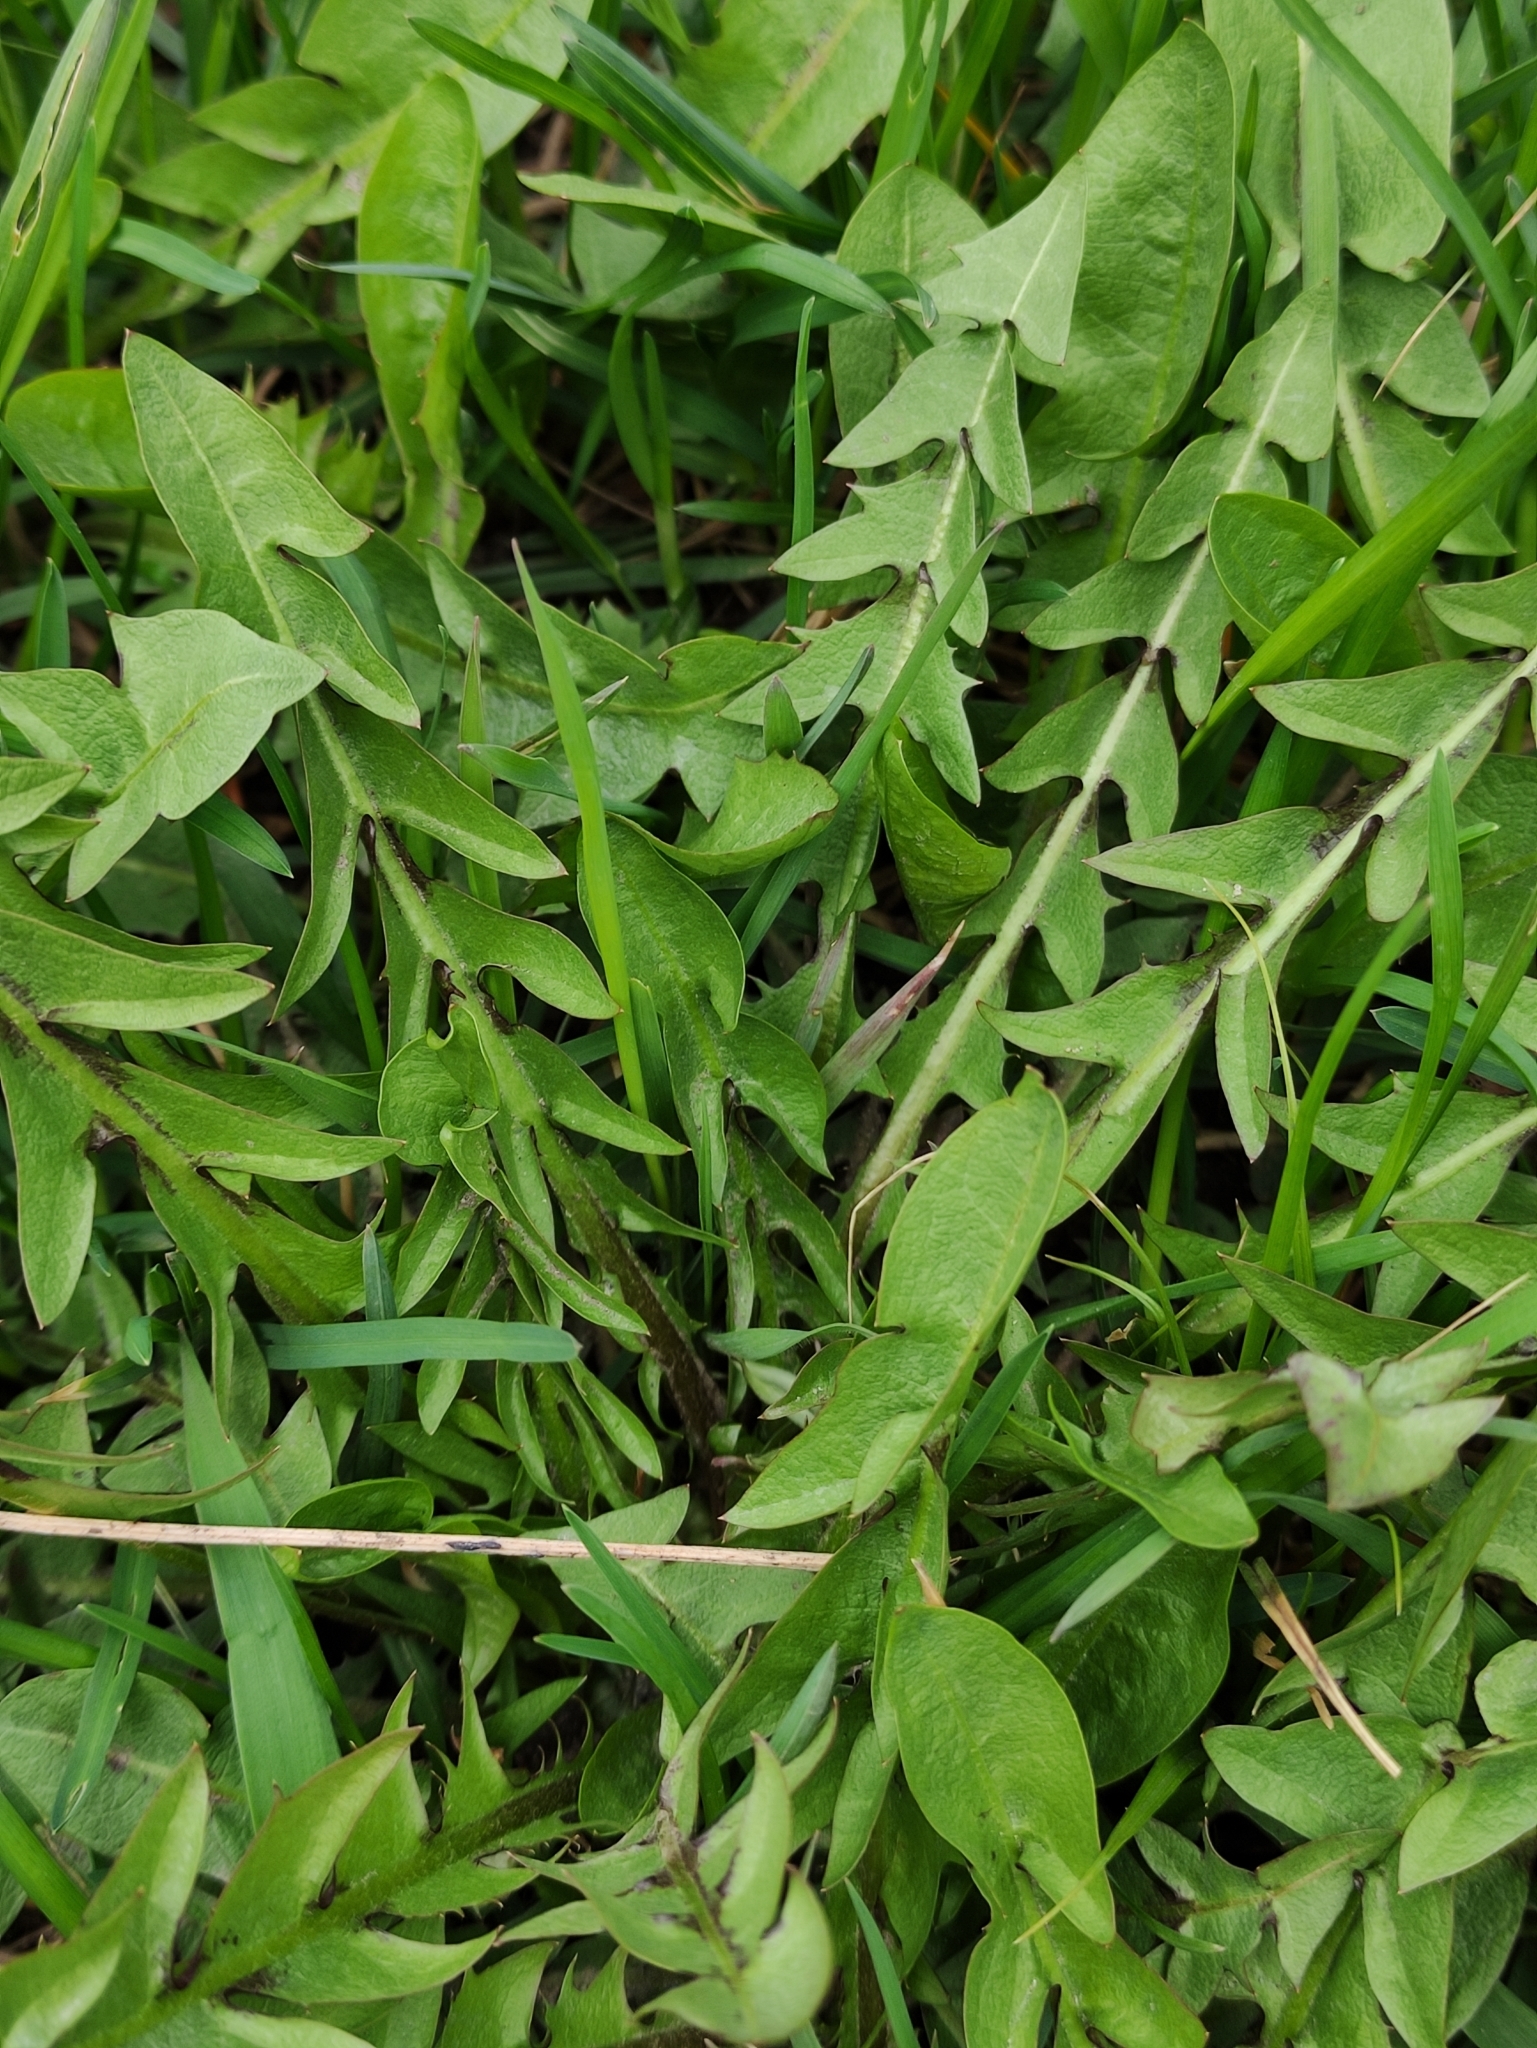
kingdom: Plantae
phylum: Tracheophyta
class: Magnoliopsida
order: Asterales
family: Asteraceae
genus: Taraxacum
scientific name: Taraxacum officinale
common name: Common dandelion
